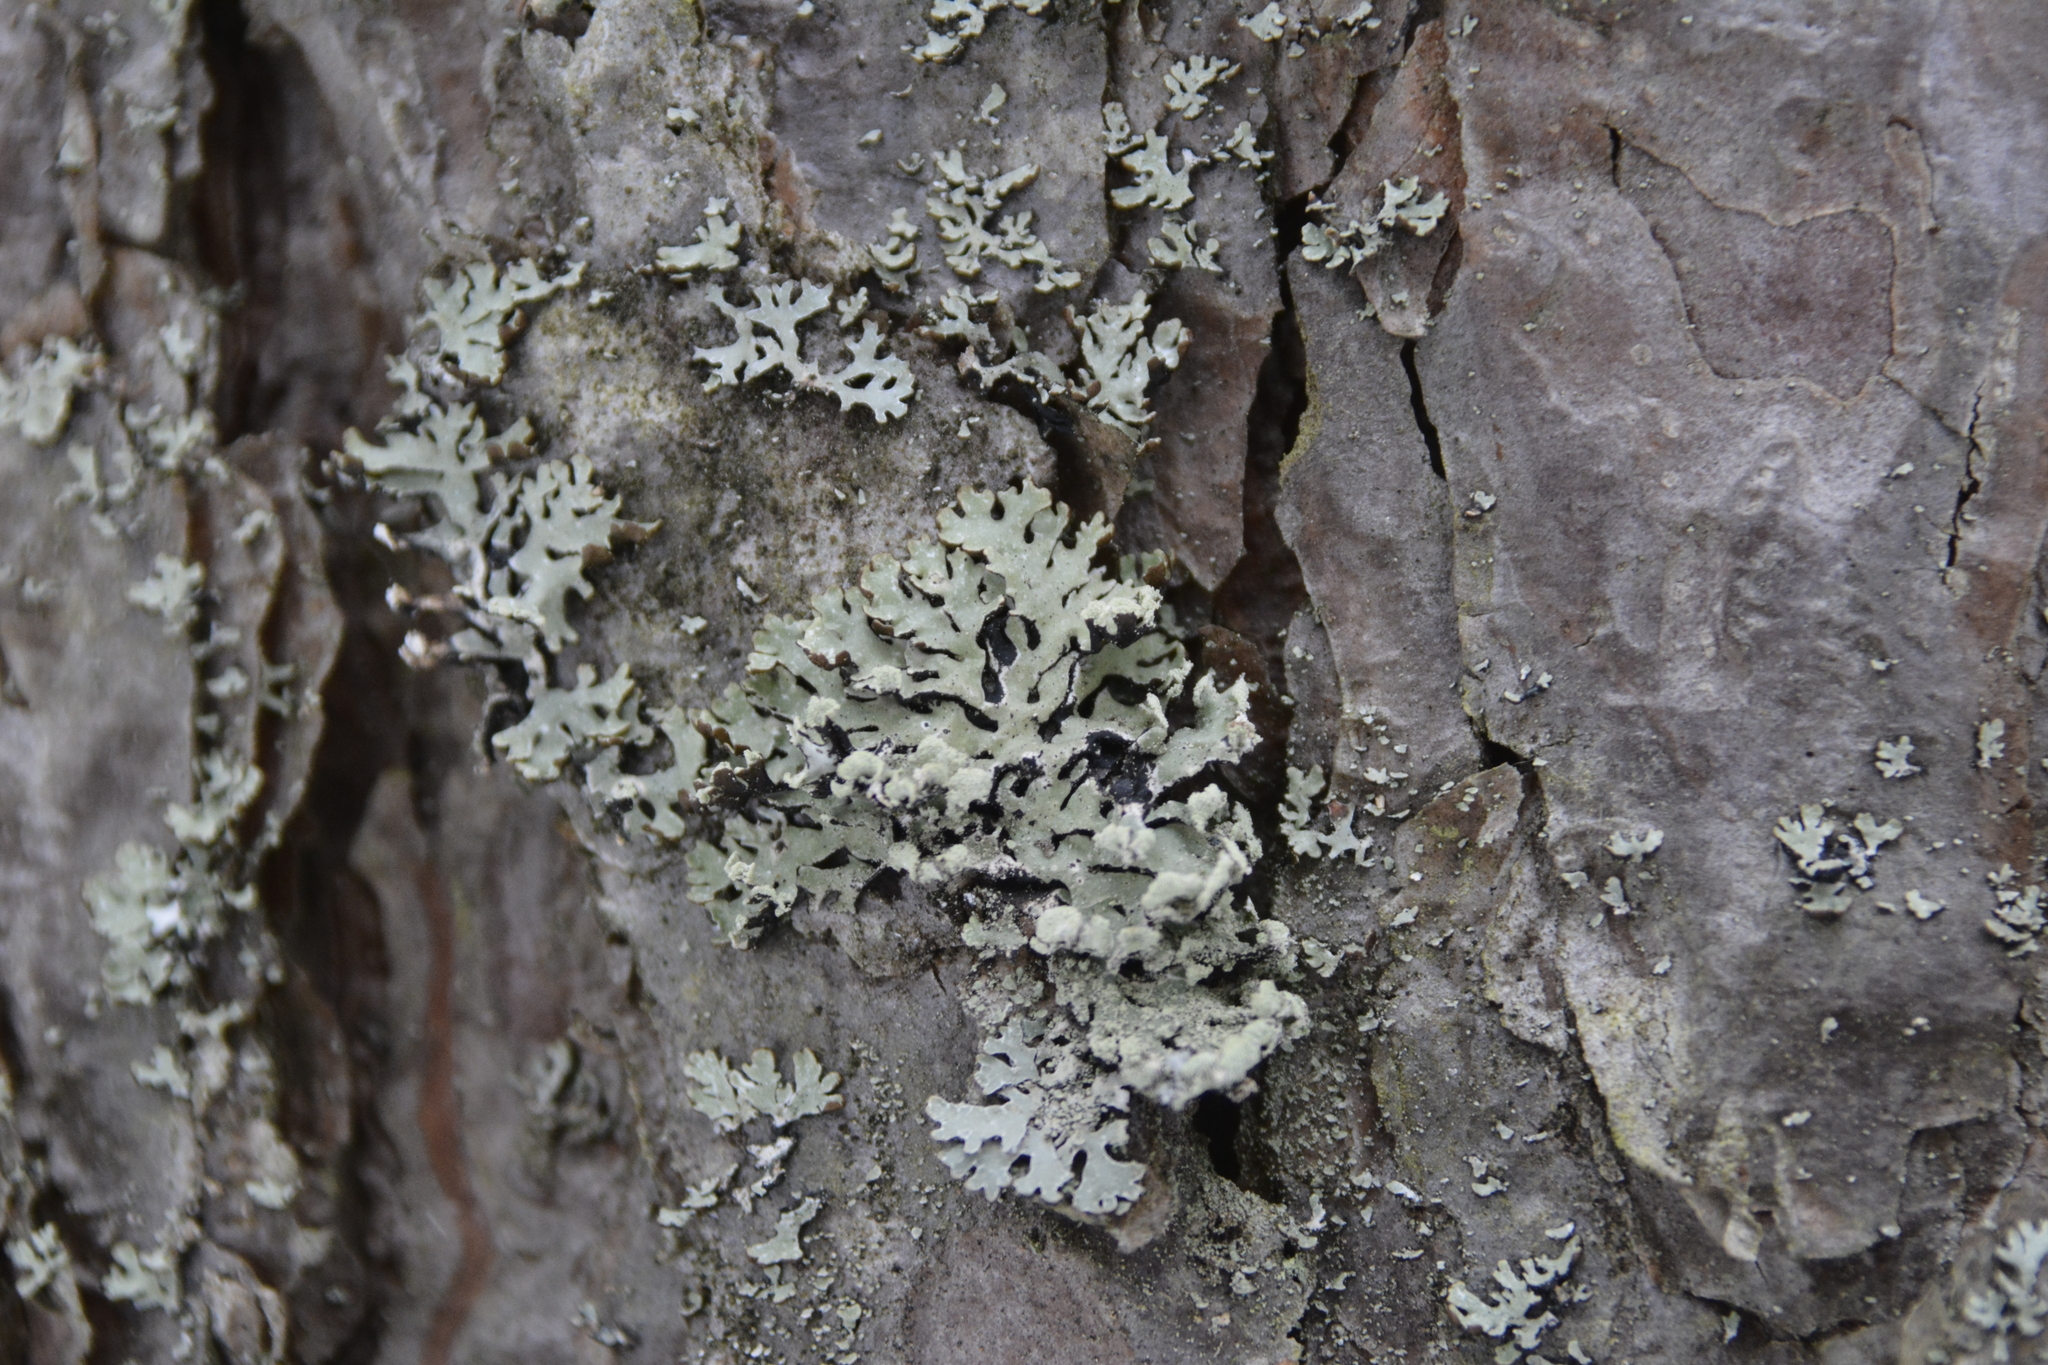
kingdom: Fungi
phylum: Ascomycota
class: Lecanoromycetes
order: Lecanorales
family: Parmeliaceae
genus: Hypogymnia
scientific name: Hypogymnia physodes
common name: Dark crottle
